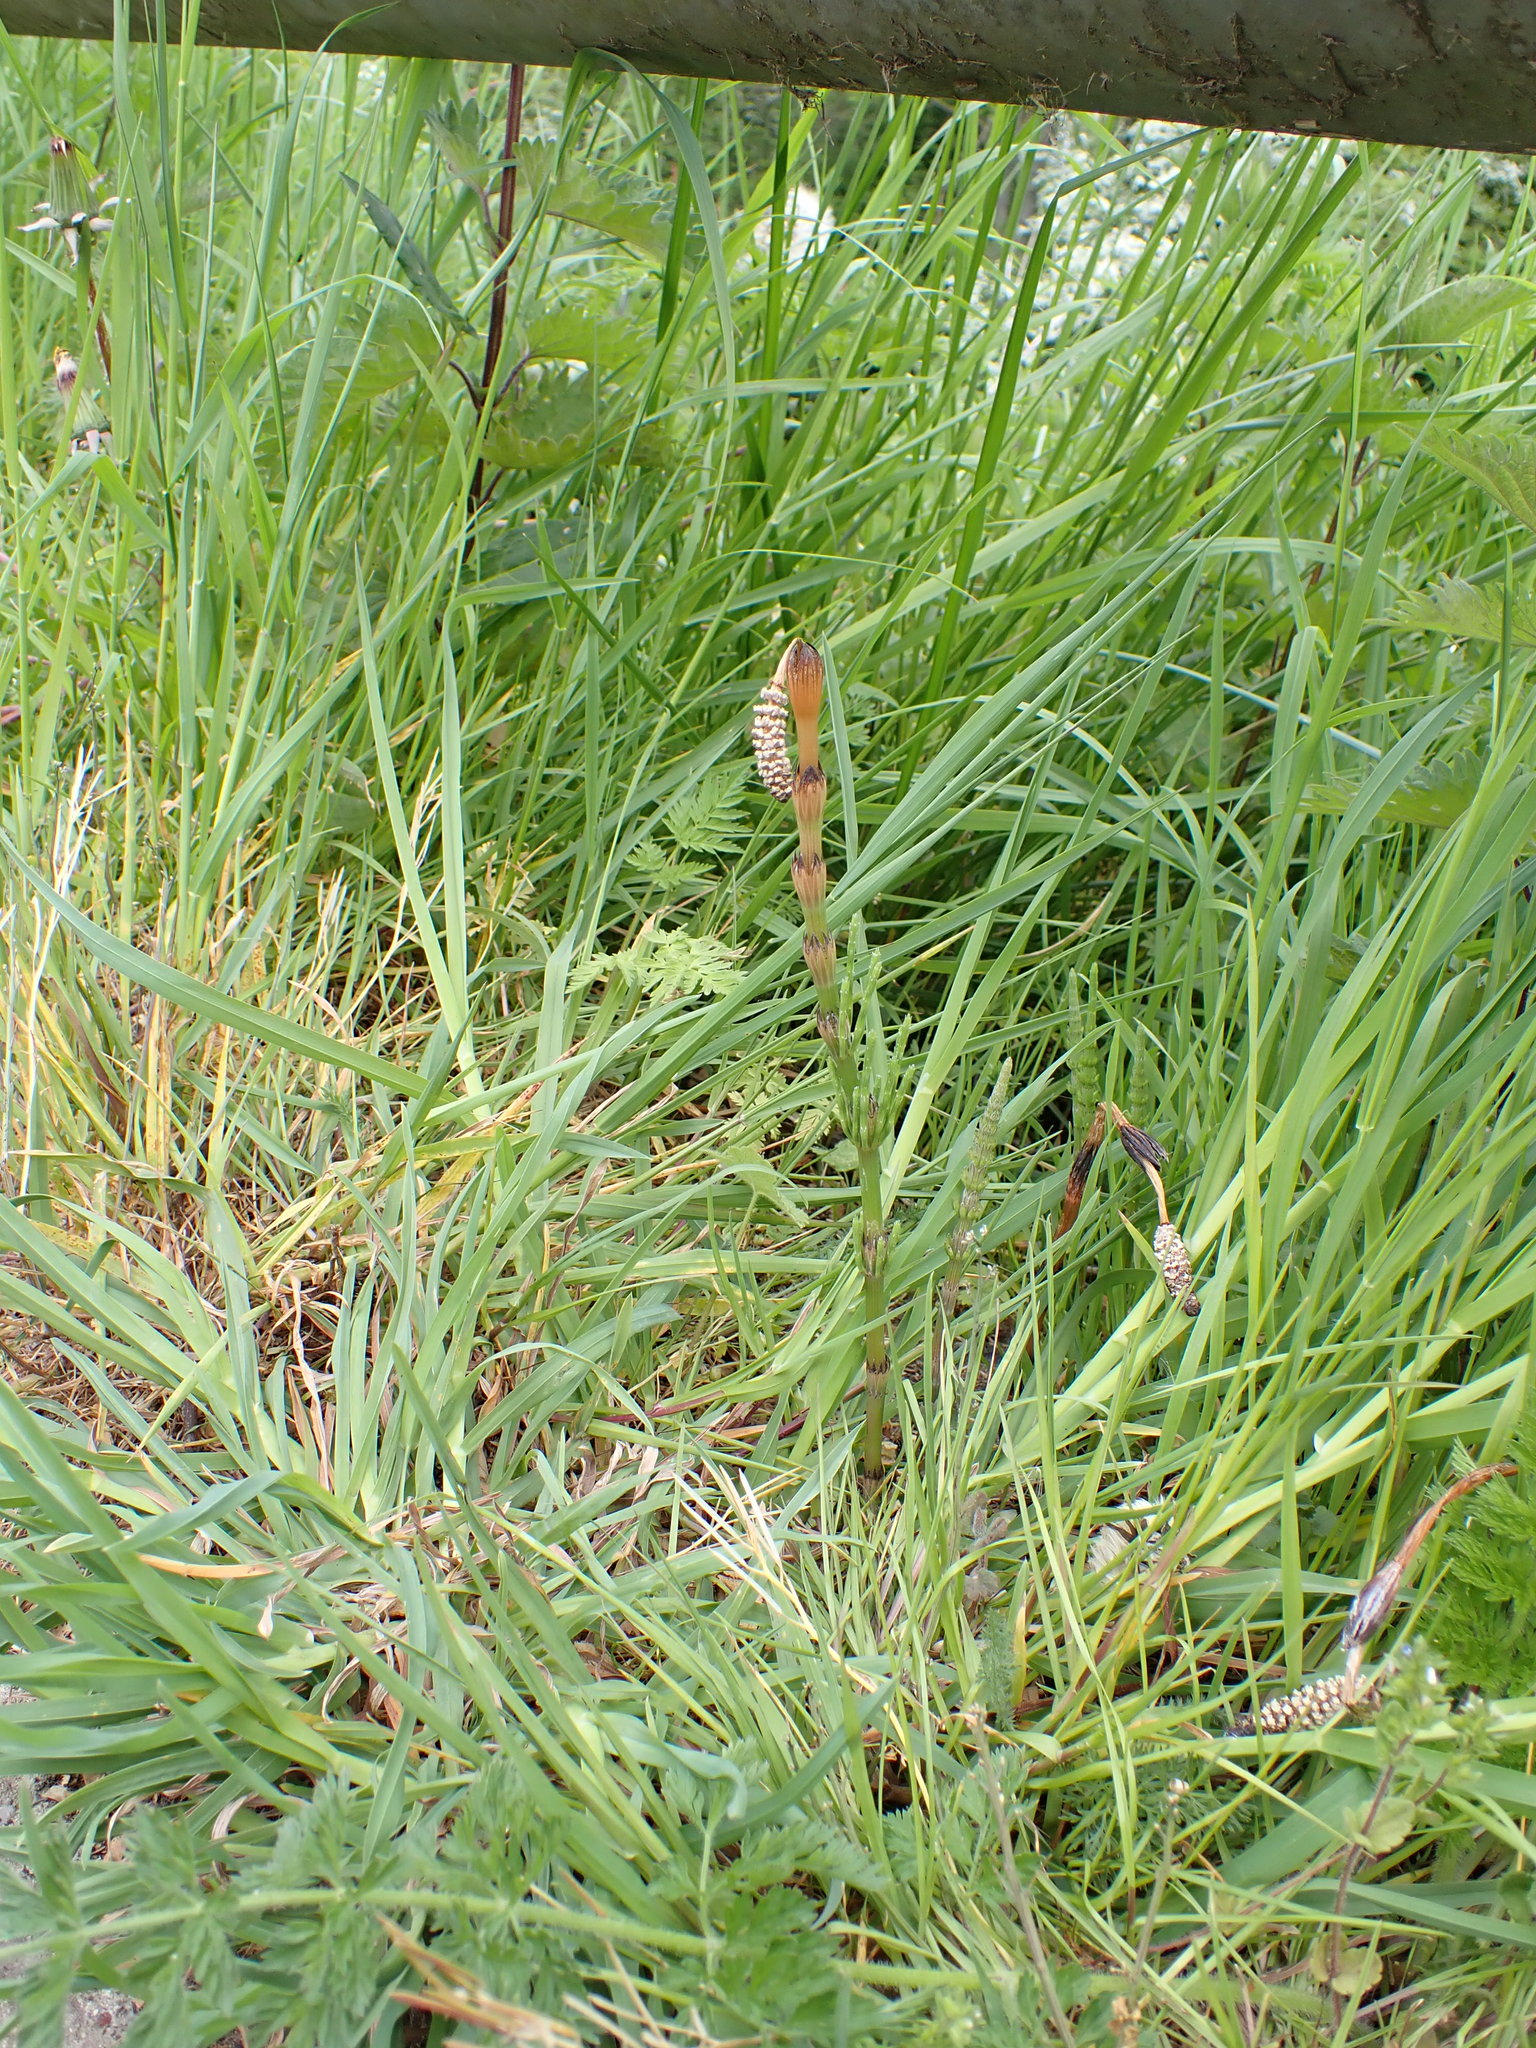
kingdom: Plantae
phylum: Tracheophyta
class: Polypodiopsida
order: Equisetales
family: Equisetaceae
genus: Equisetum
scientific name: Equisetum arvense
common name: Field horsetail
